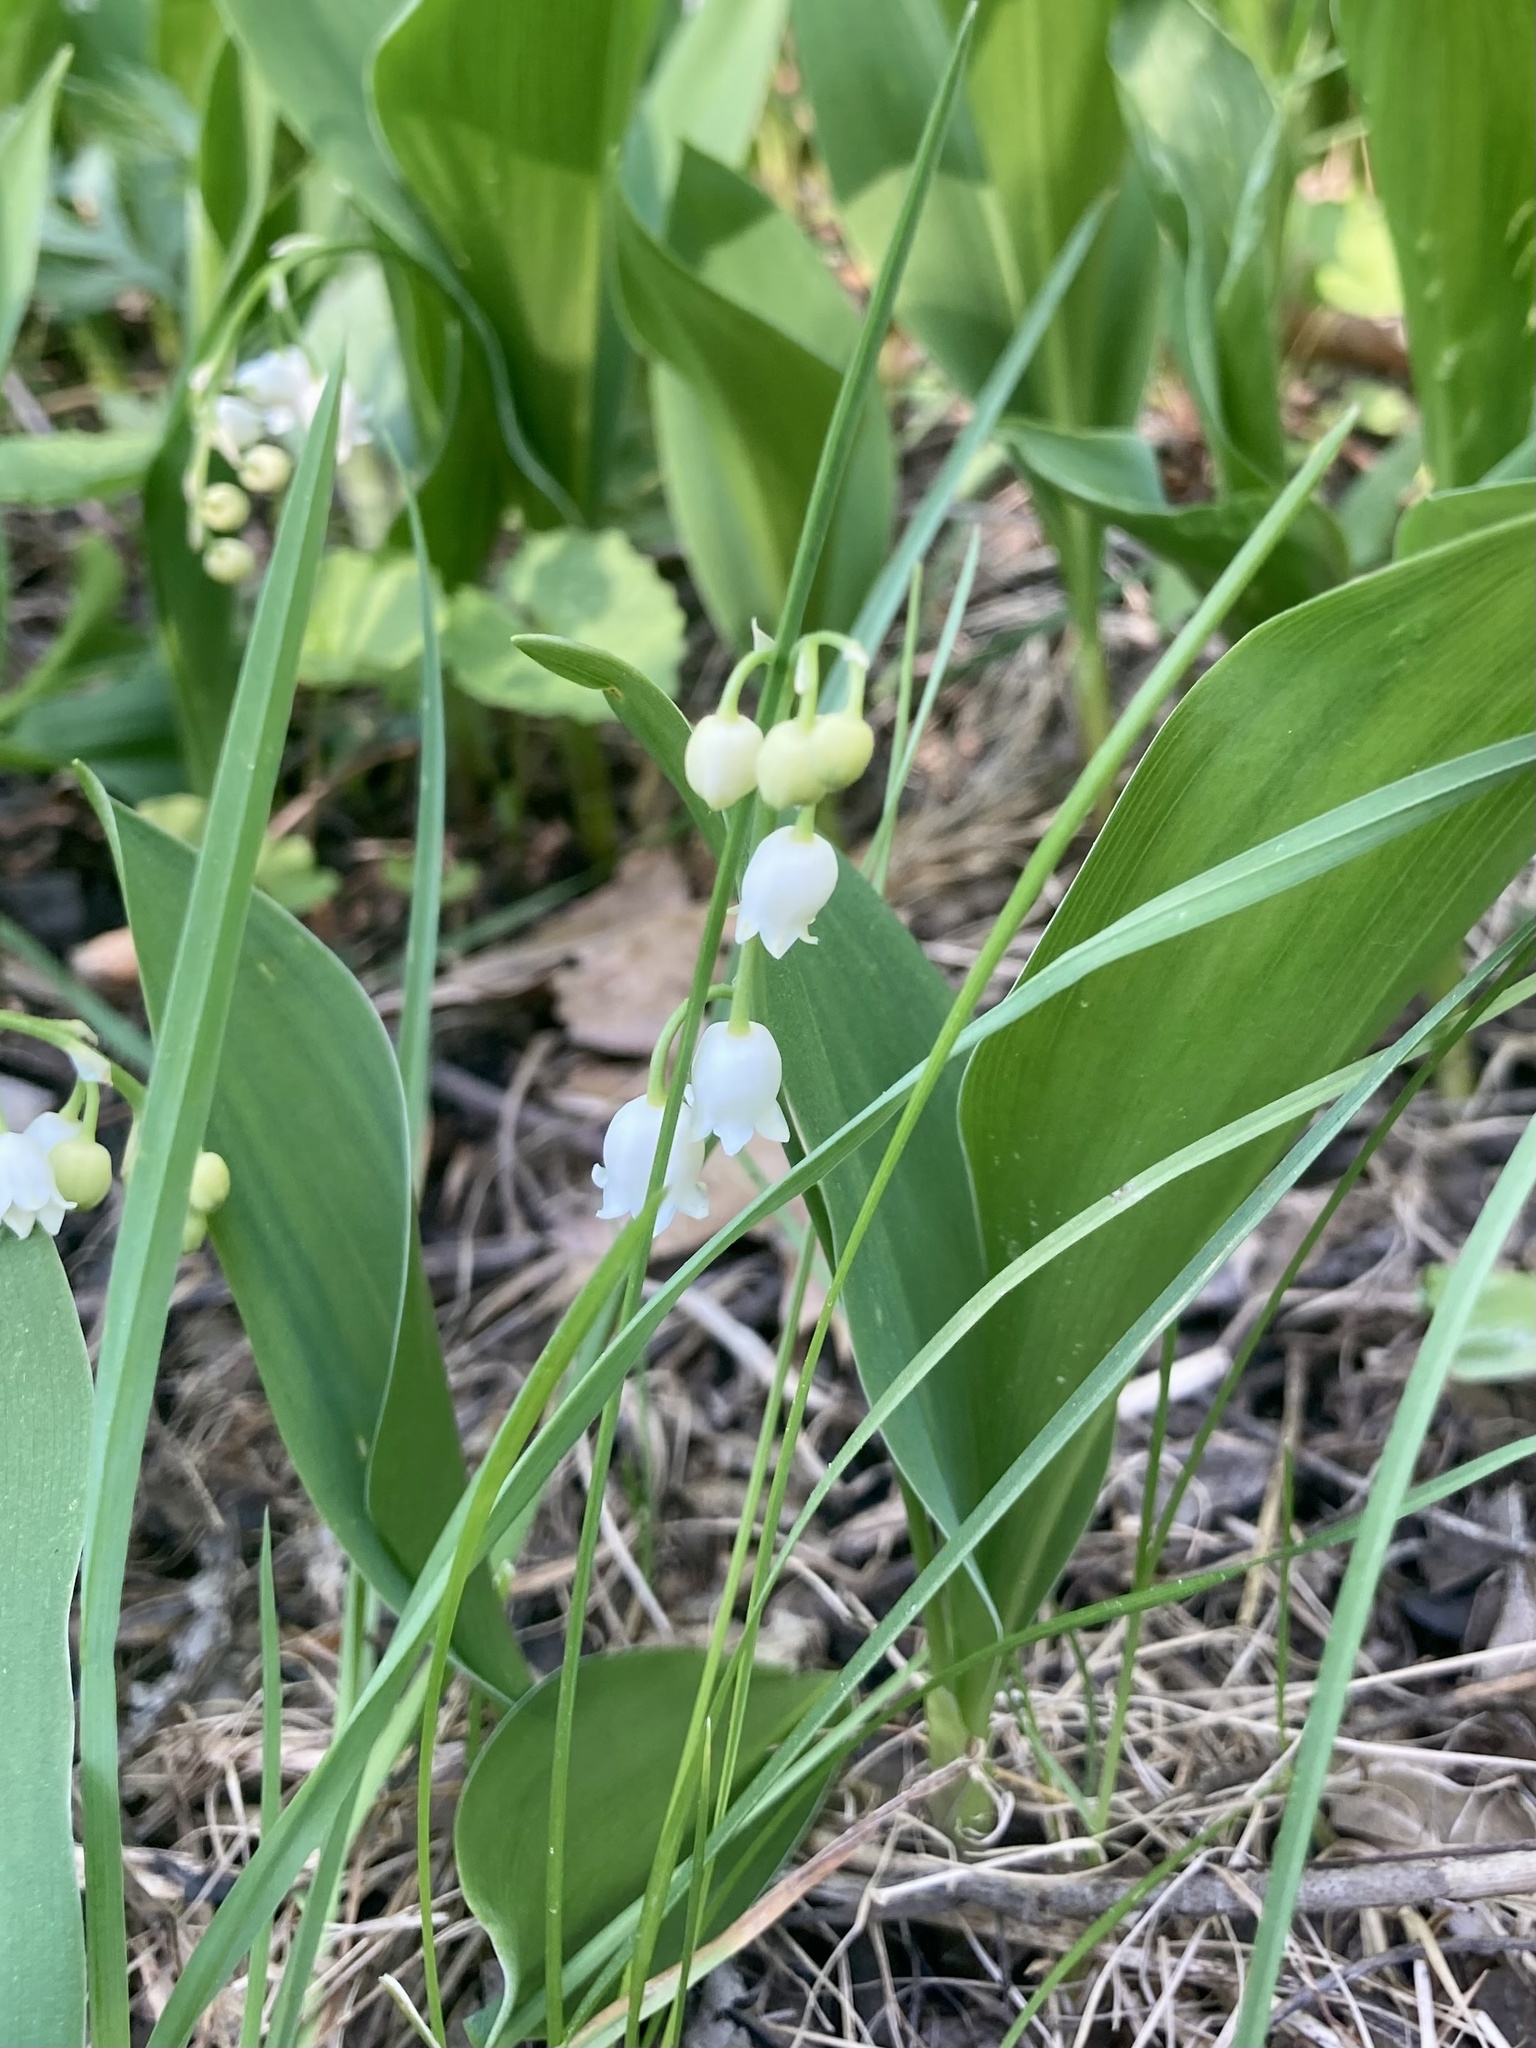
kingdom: Plantae
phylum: Tracheophyta
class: Liliopsida
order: Asparagales
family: Asparagaceae
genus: Convallaria
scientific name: Convallaria majalis
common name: Lily-of-the-valley
